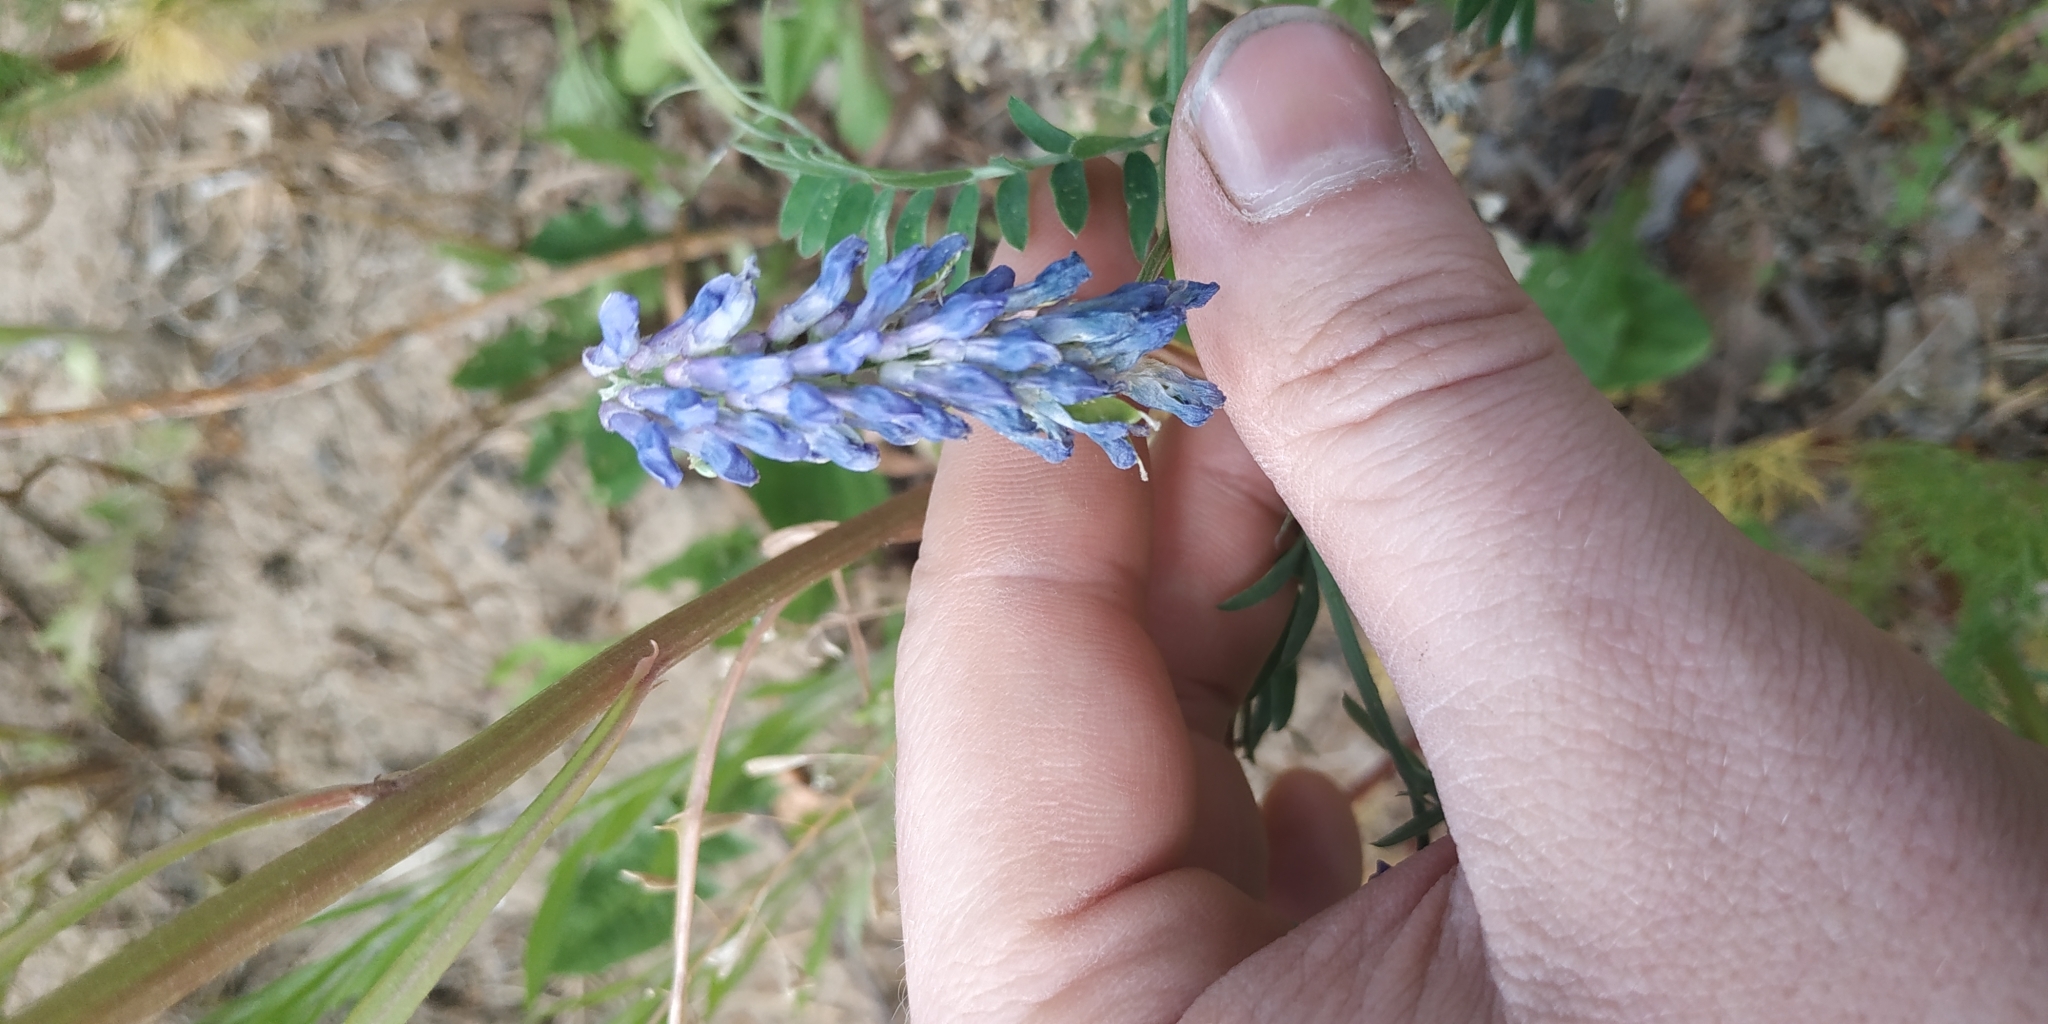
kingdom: Plantae
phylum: Tracheophyta
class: Magnoliopsida
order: Fabales
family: Fabaceae
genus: Vicia
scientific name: Vicia cracca
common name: Bird vetch
